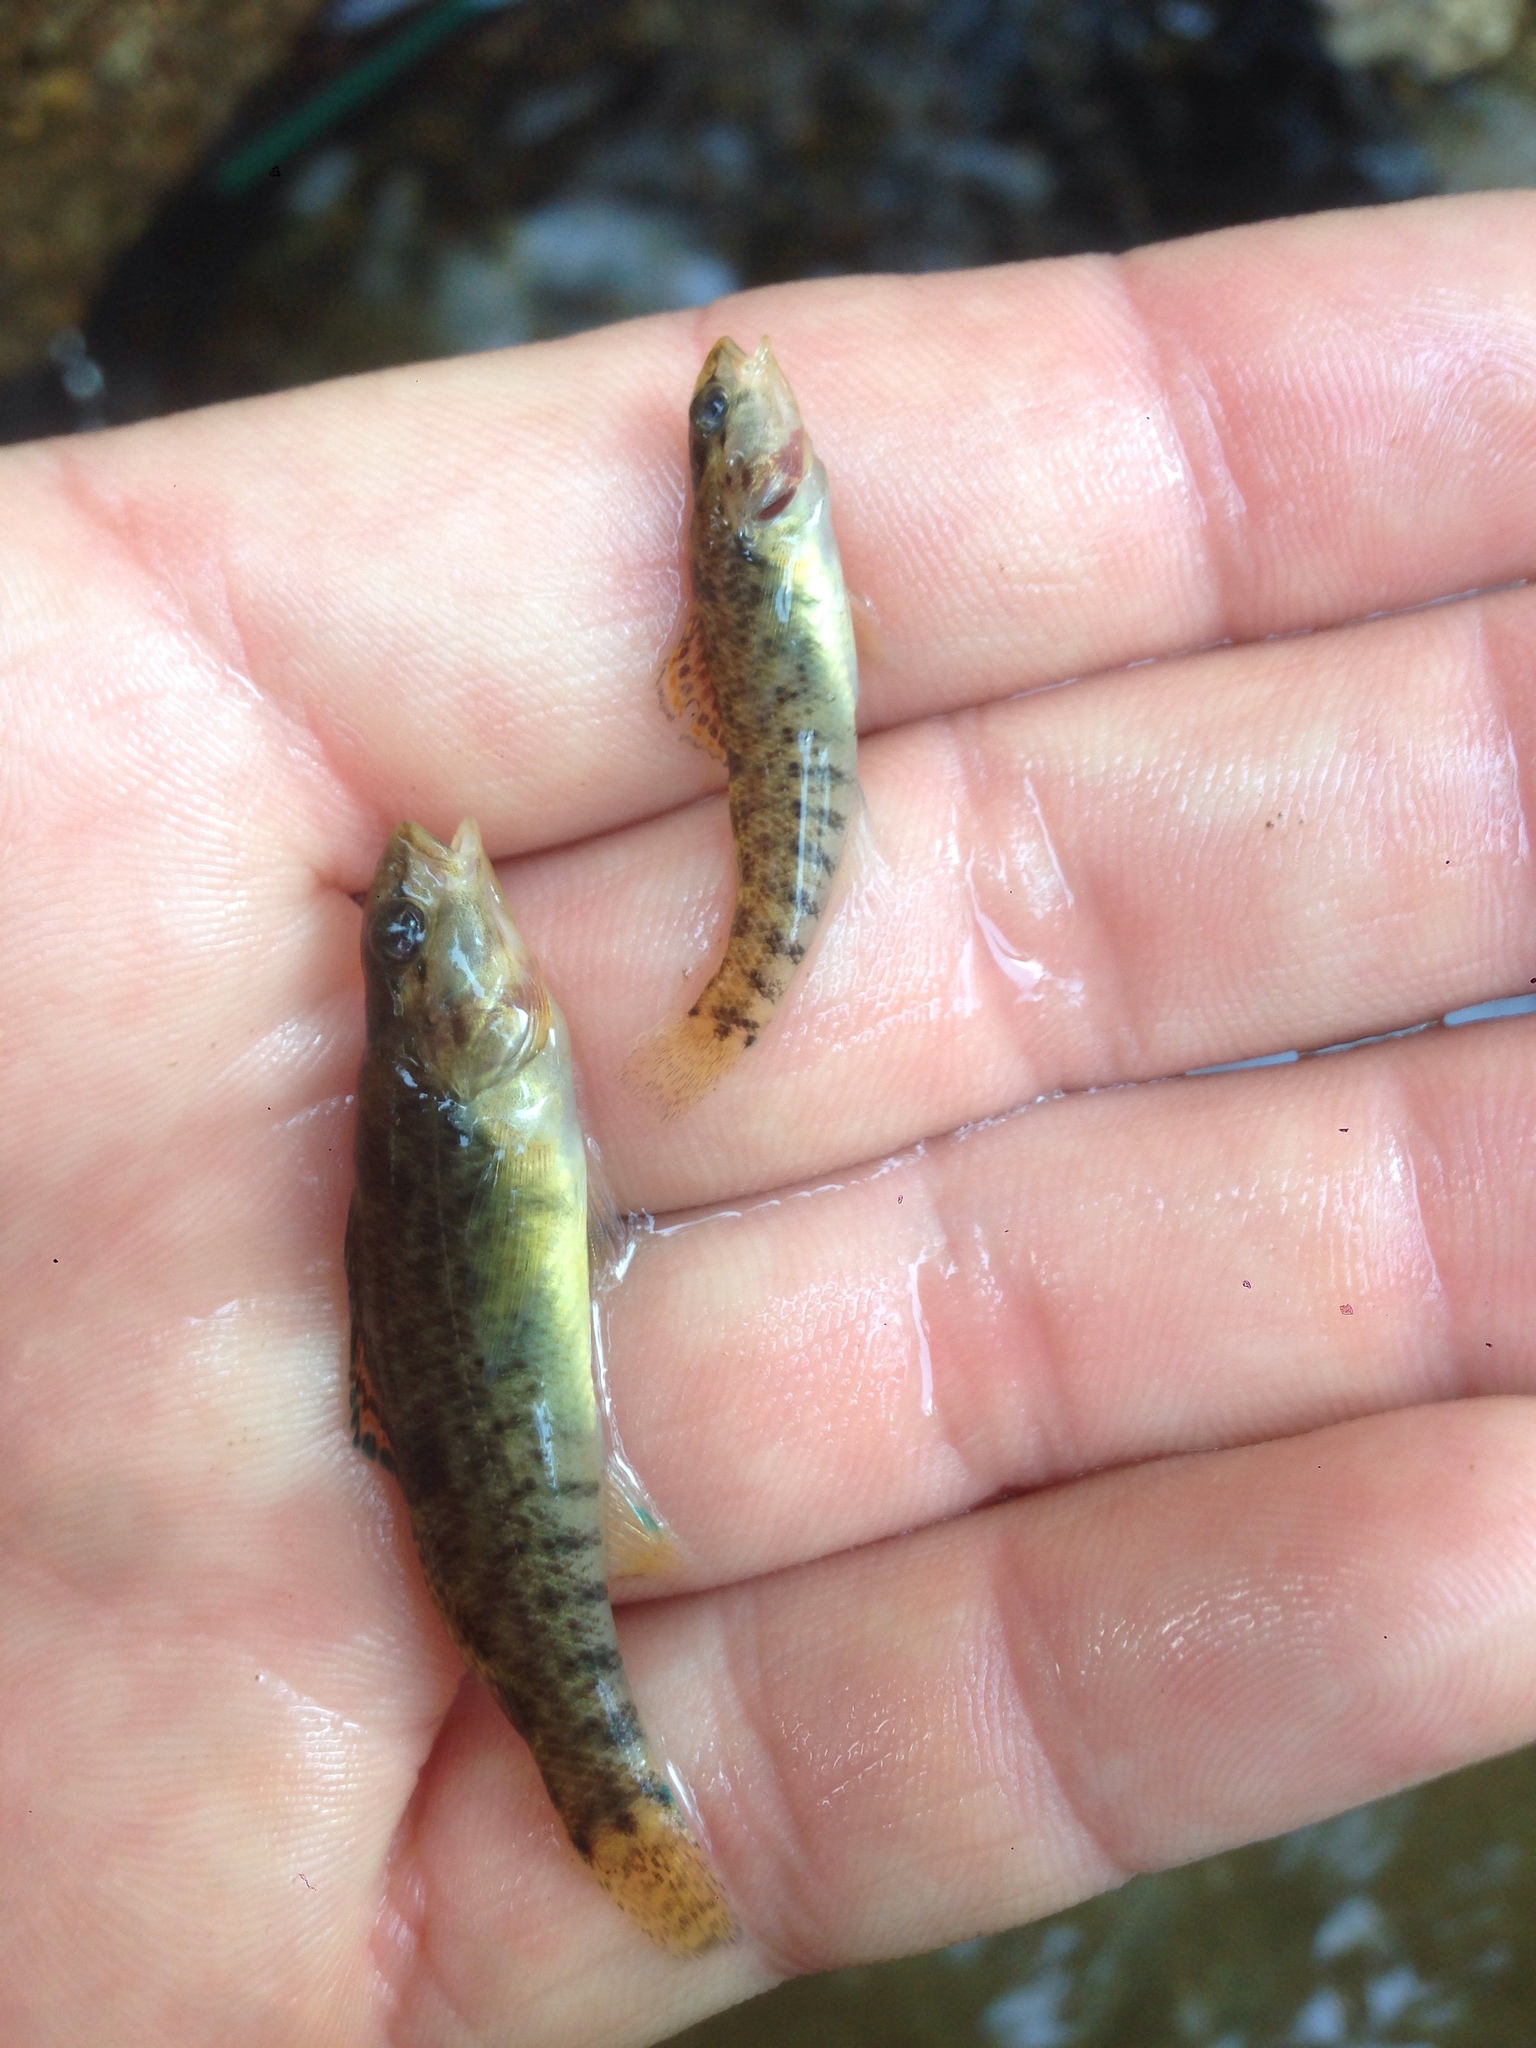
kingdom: Animalia
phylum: Chordata
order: Perciformes
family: Percidae
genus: Etheostoma
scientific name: Etheostoma caeruleum
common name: Rainbow darter
